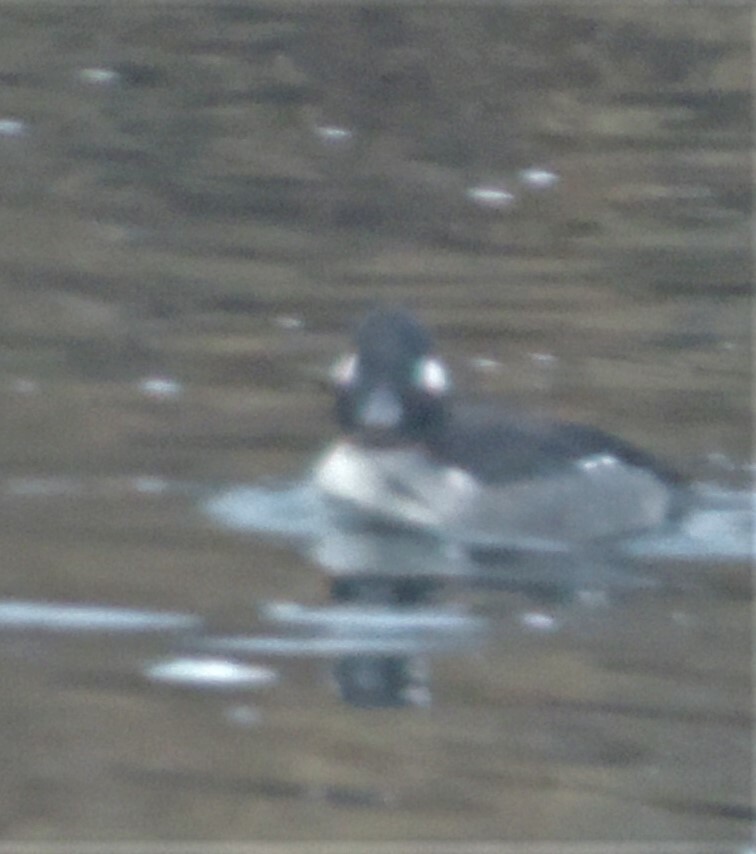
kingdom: Animalia
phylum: Chordata
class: Aves
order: Anseriformes
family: Anatidae
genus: Bucephala
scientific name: Bucephala albeola
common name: Bufflehead
